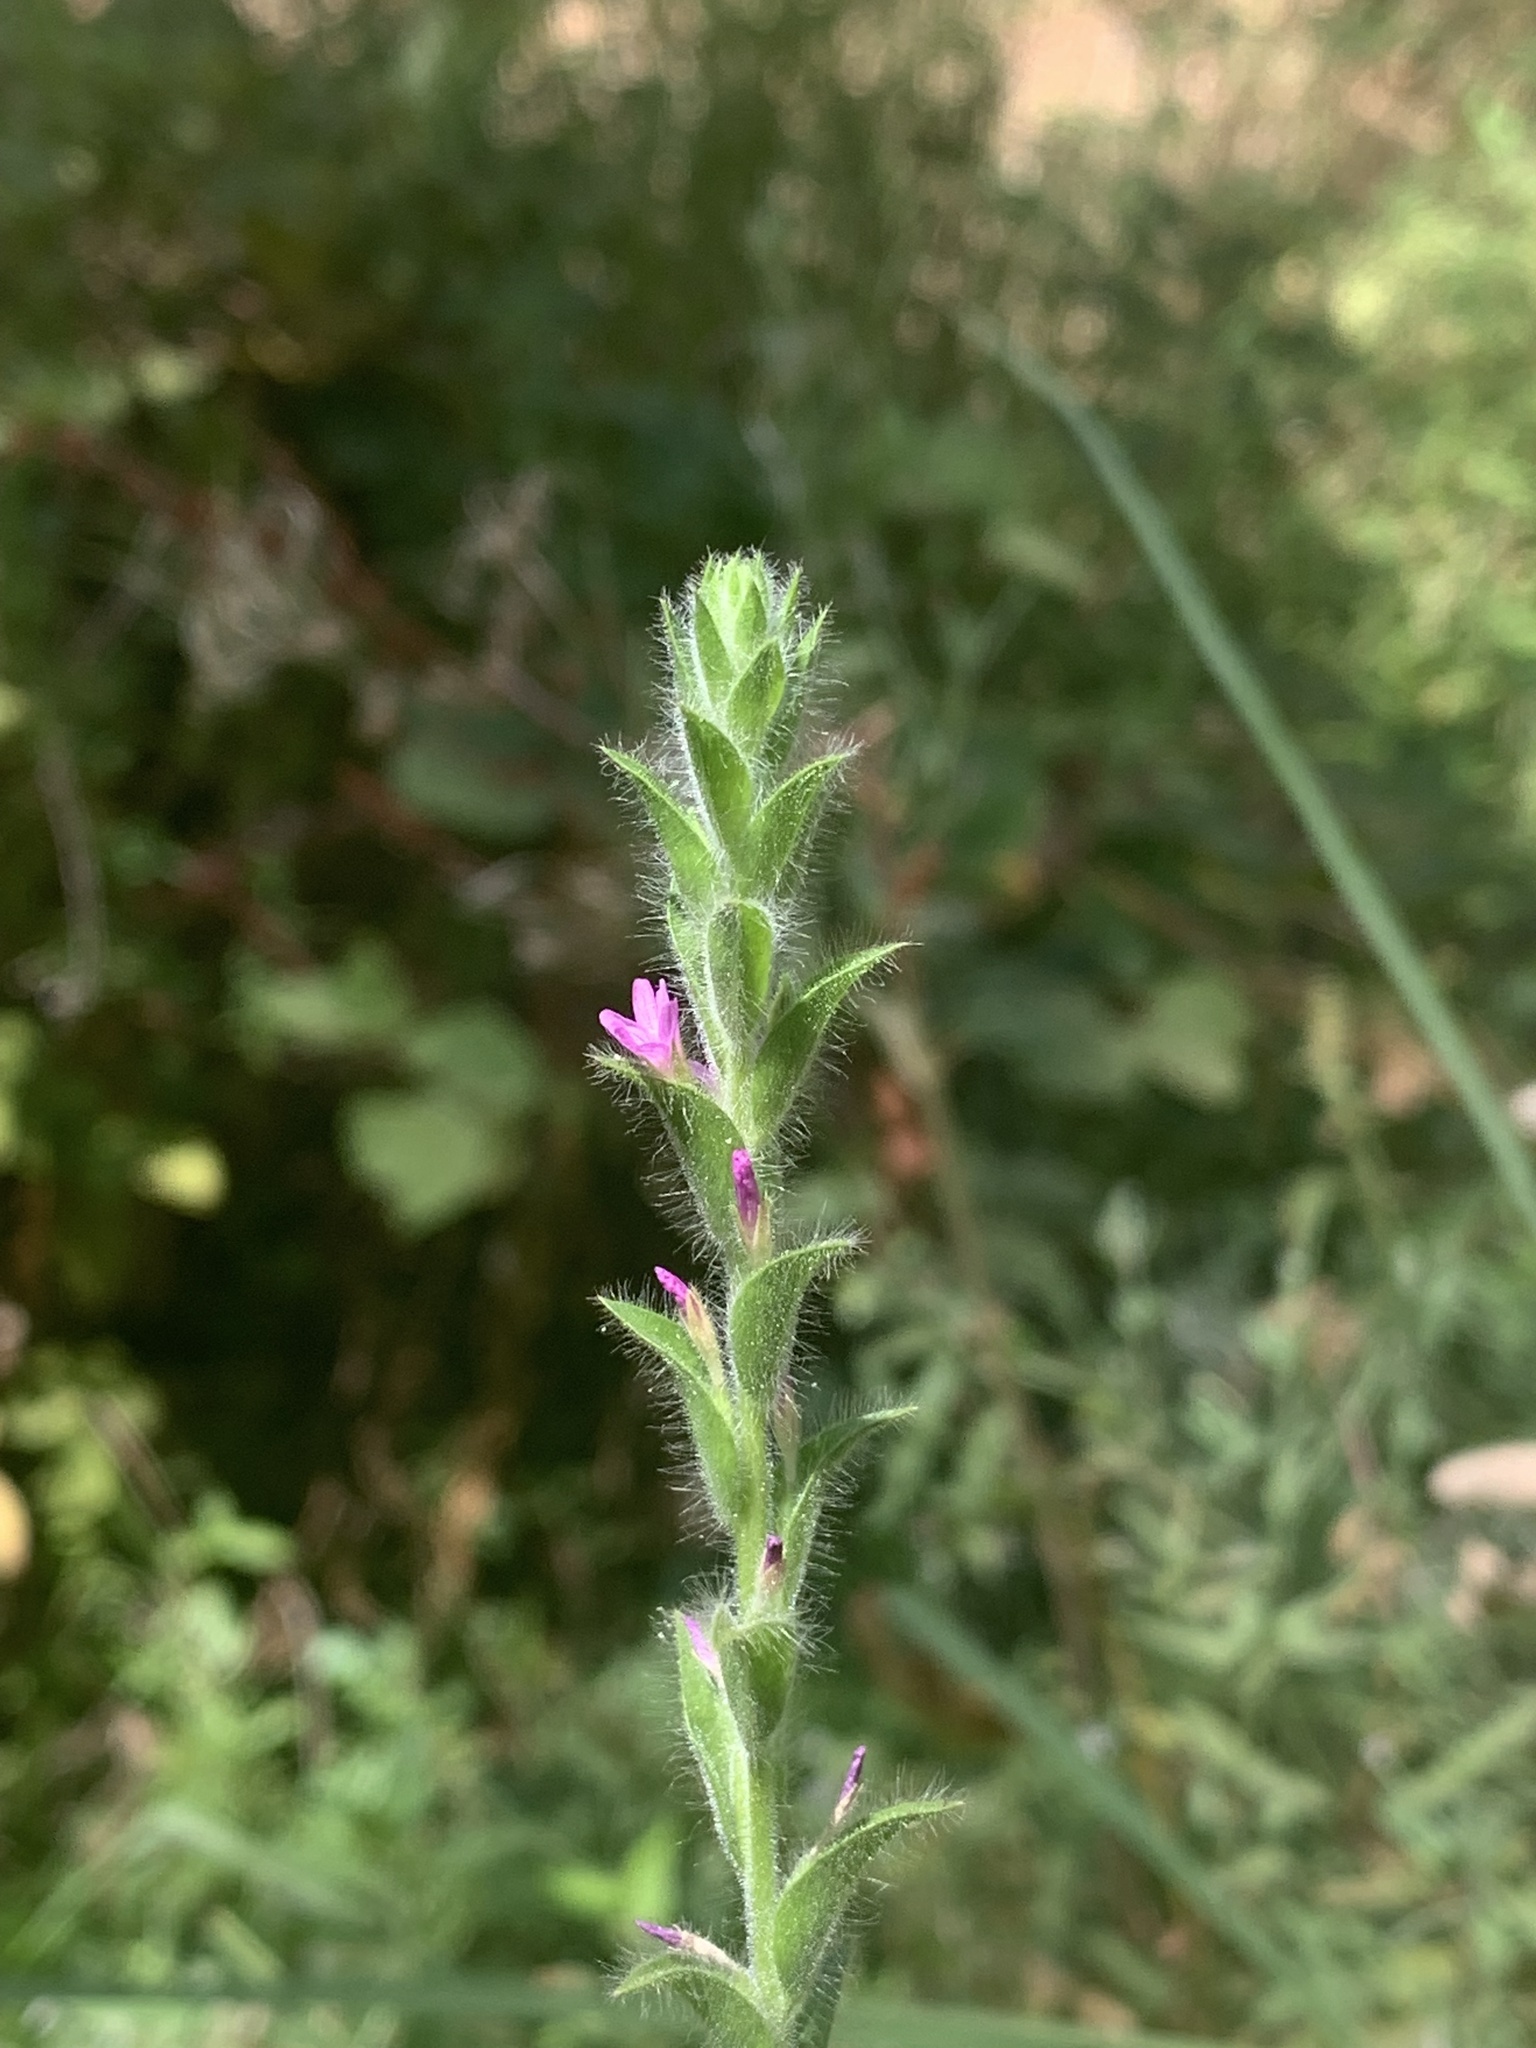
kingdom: Plantae
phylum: Tracheophyta
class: Magnoliopsida
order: Myrtales
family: Onagraceae
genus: Epilobium
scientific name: Epilobium densiflorum
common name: Dense spike-primrose
